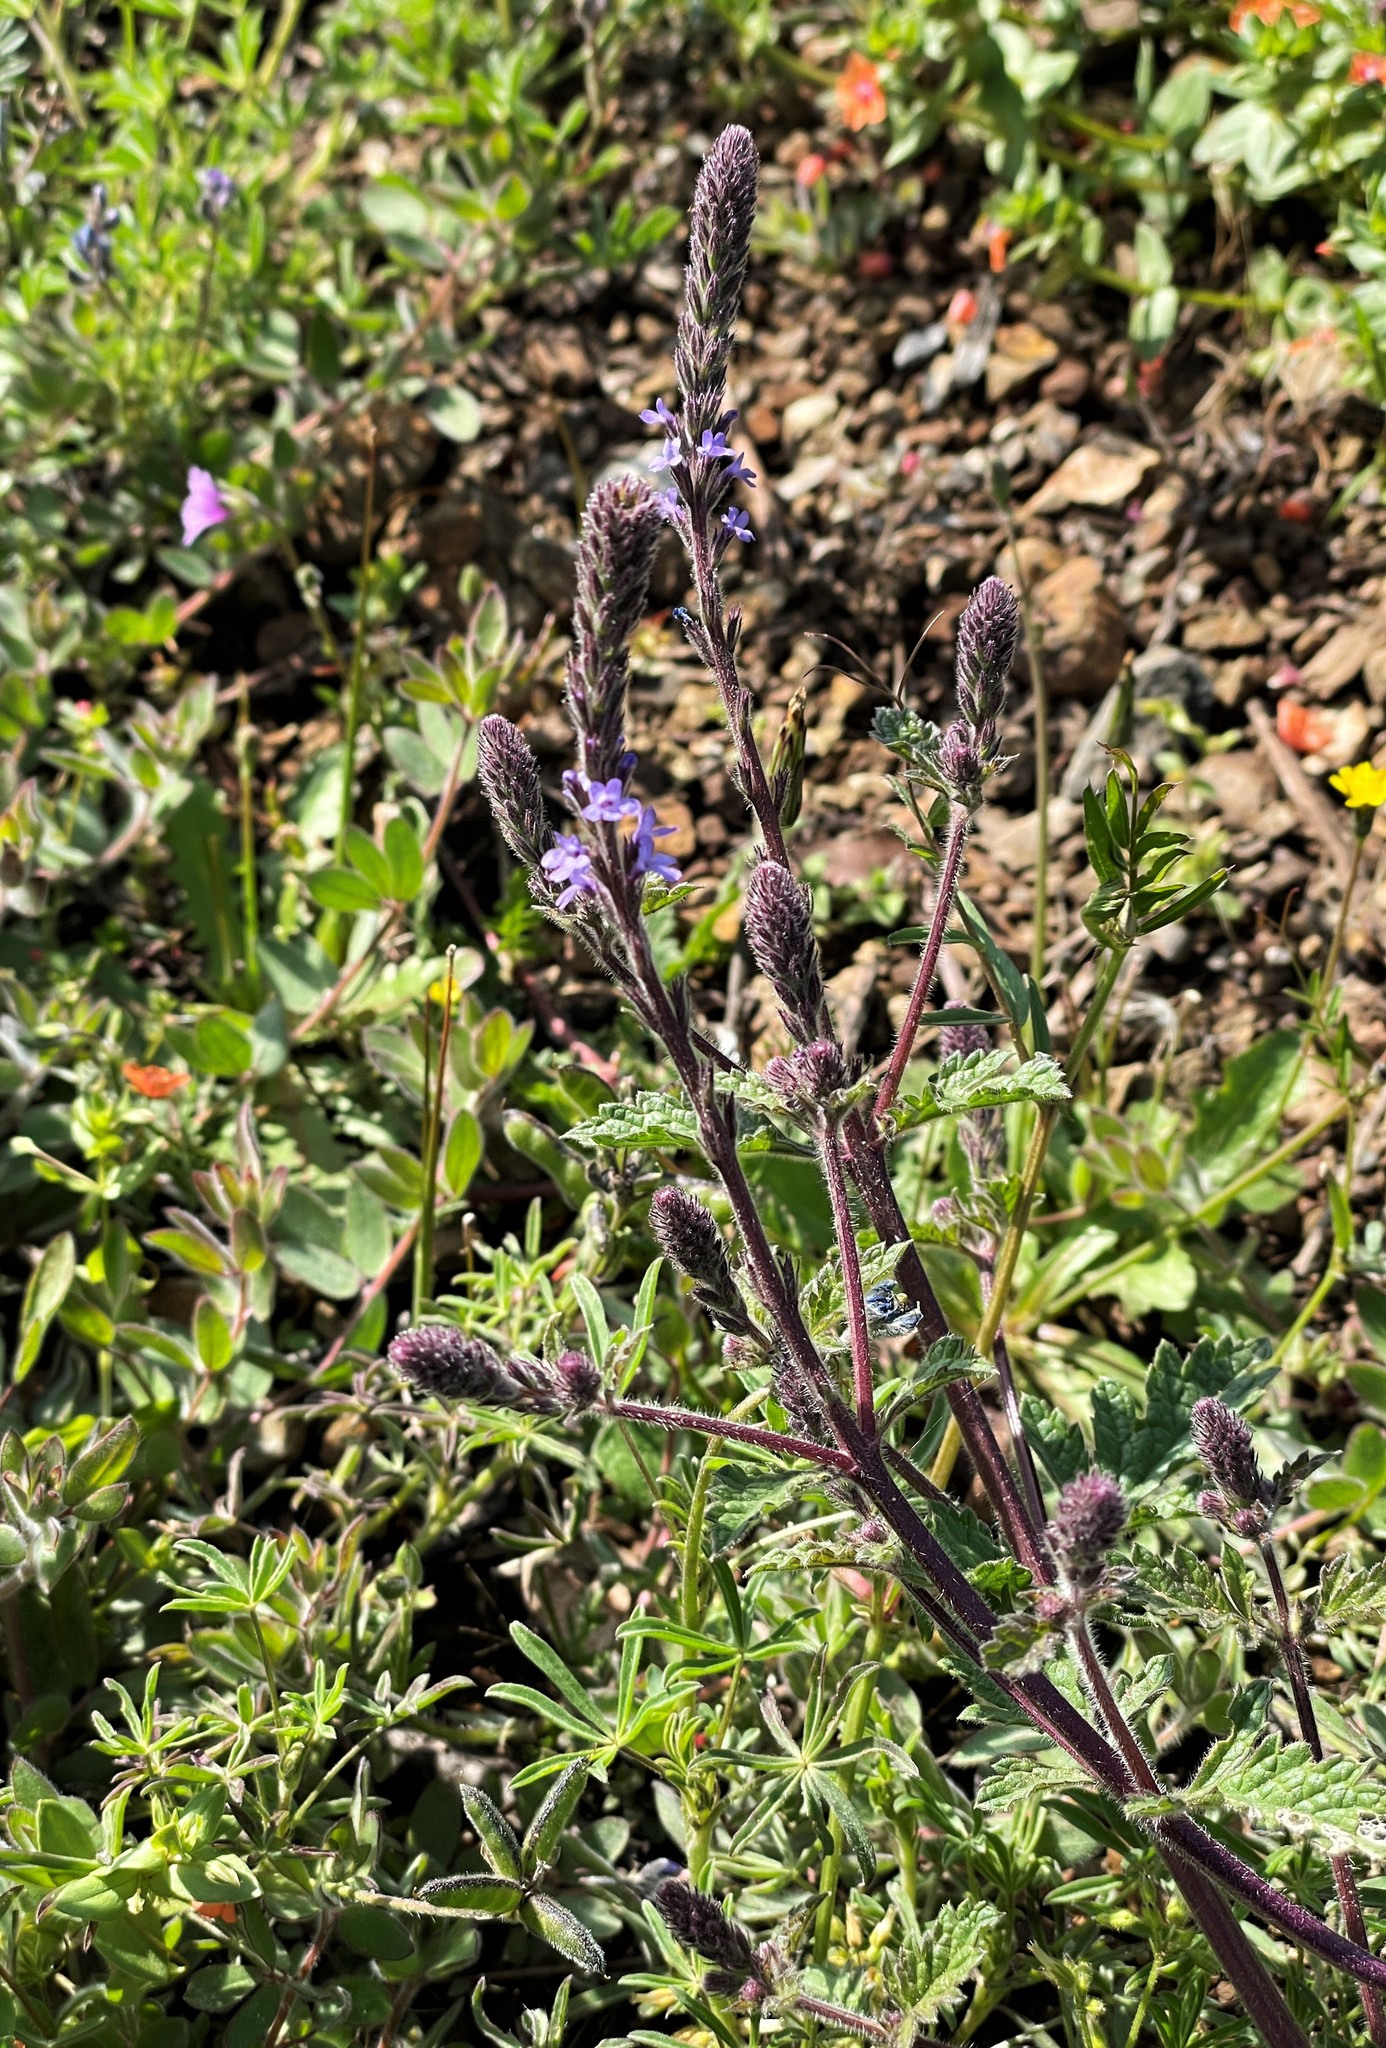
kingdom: Plantae
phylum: Tracheophyta
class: Magnoliopsida
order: Lamiales
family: Verbenaceae
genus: Verbena
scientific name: Verbena lasiostachys
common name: Vervain
